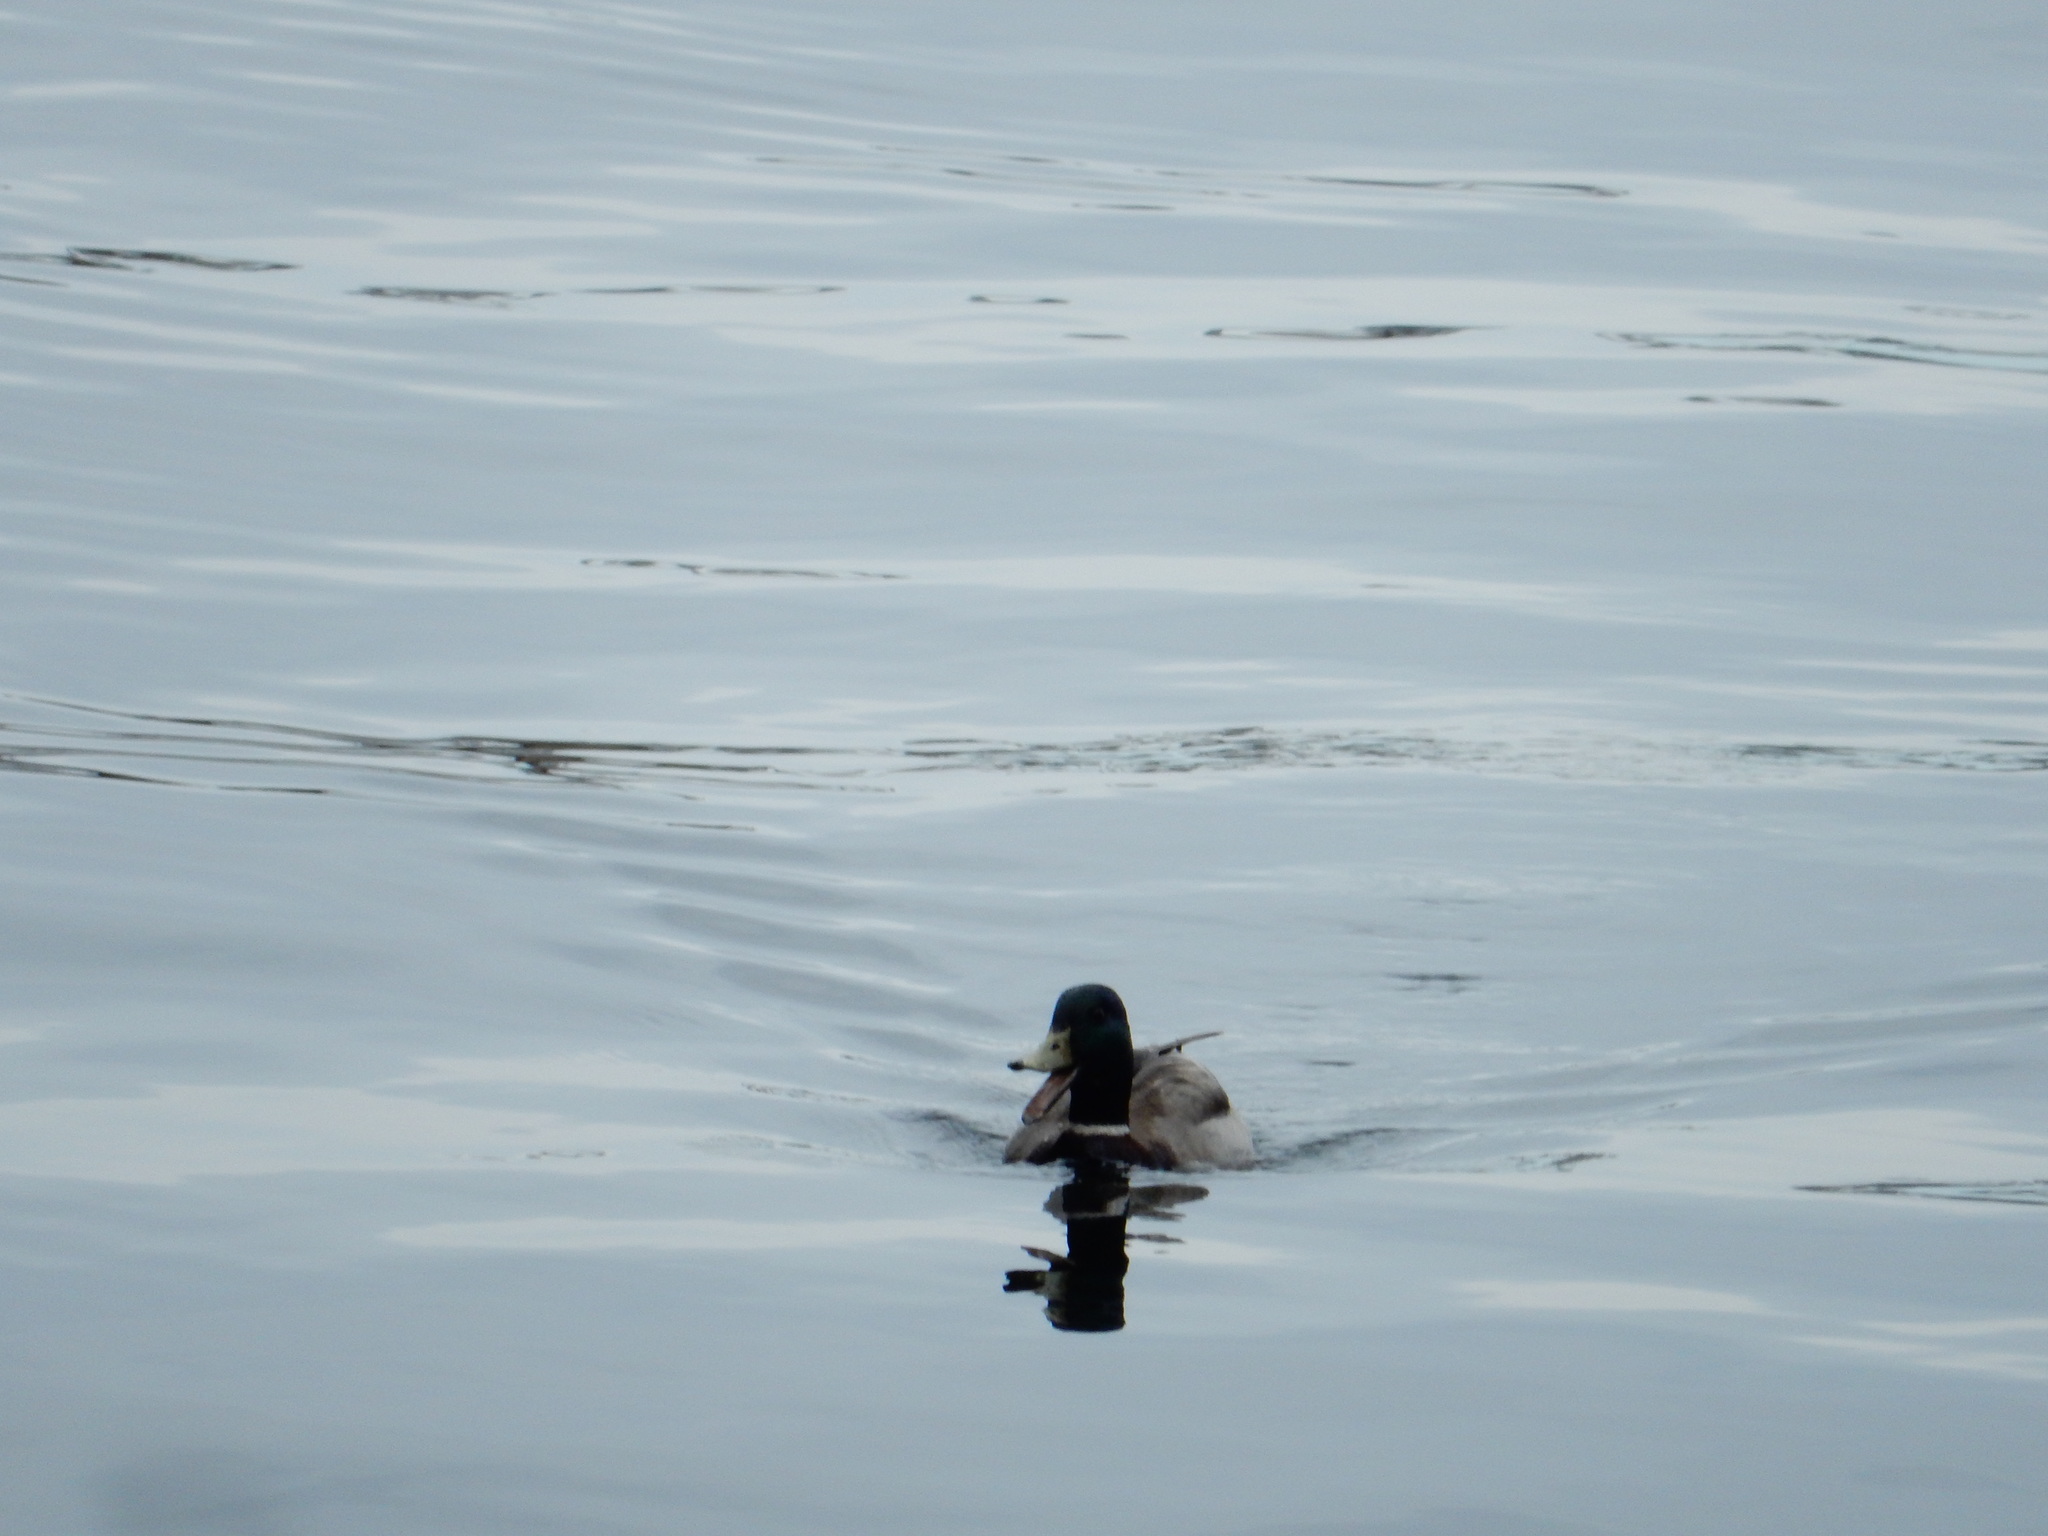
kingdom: Animalia
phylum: Chordata
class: Aves
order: Anseriformes
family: Anatidae
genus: Anas
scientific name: Anas platyrhynchos
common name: Mallard
